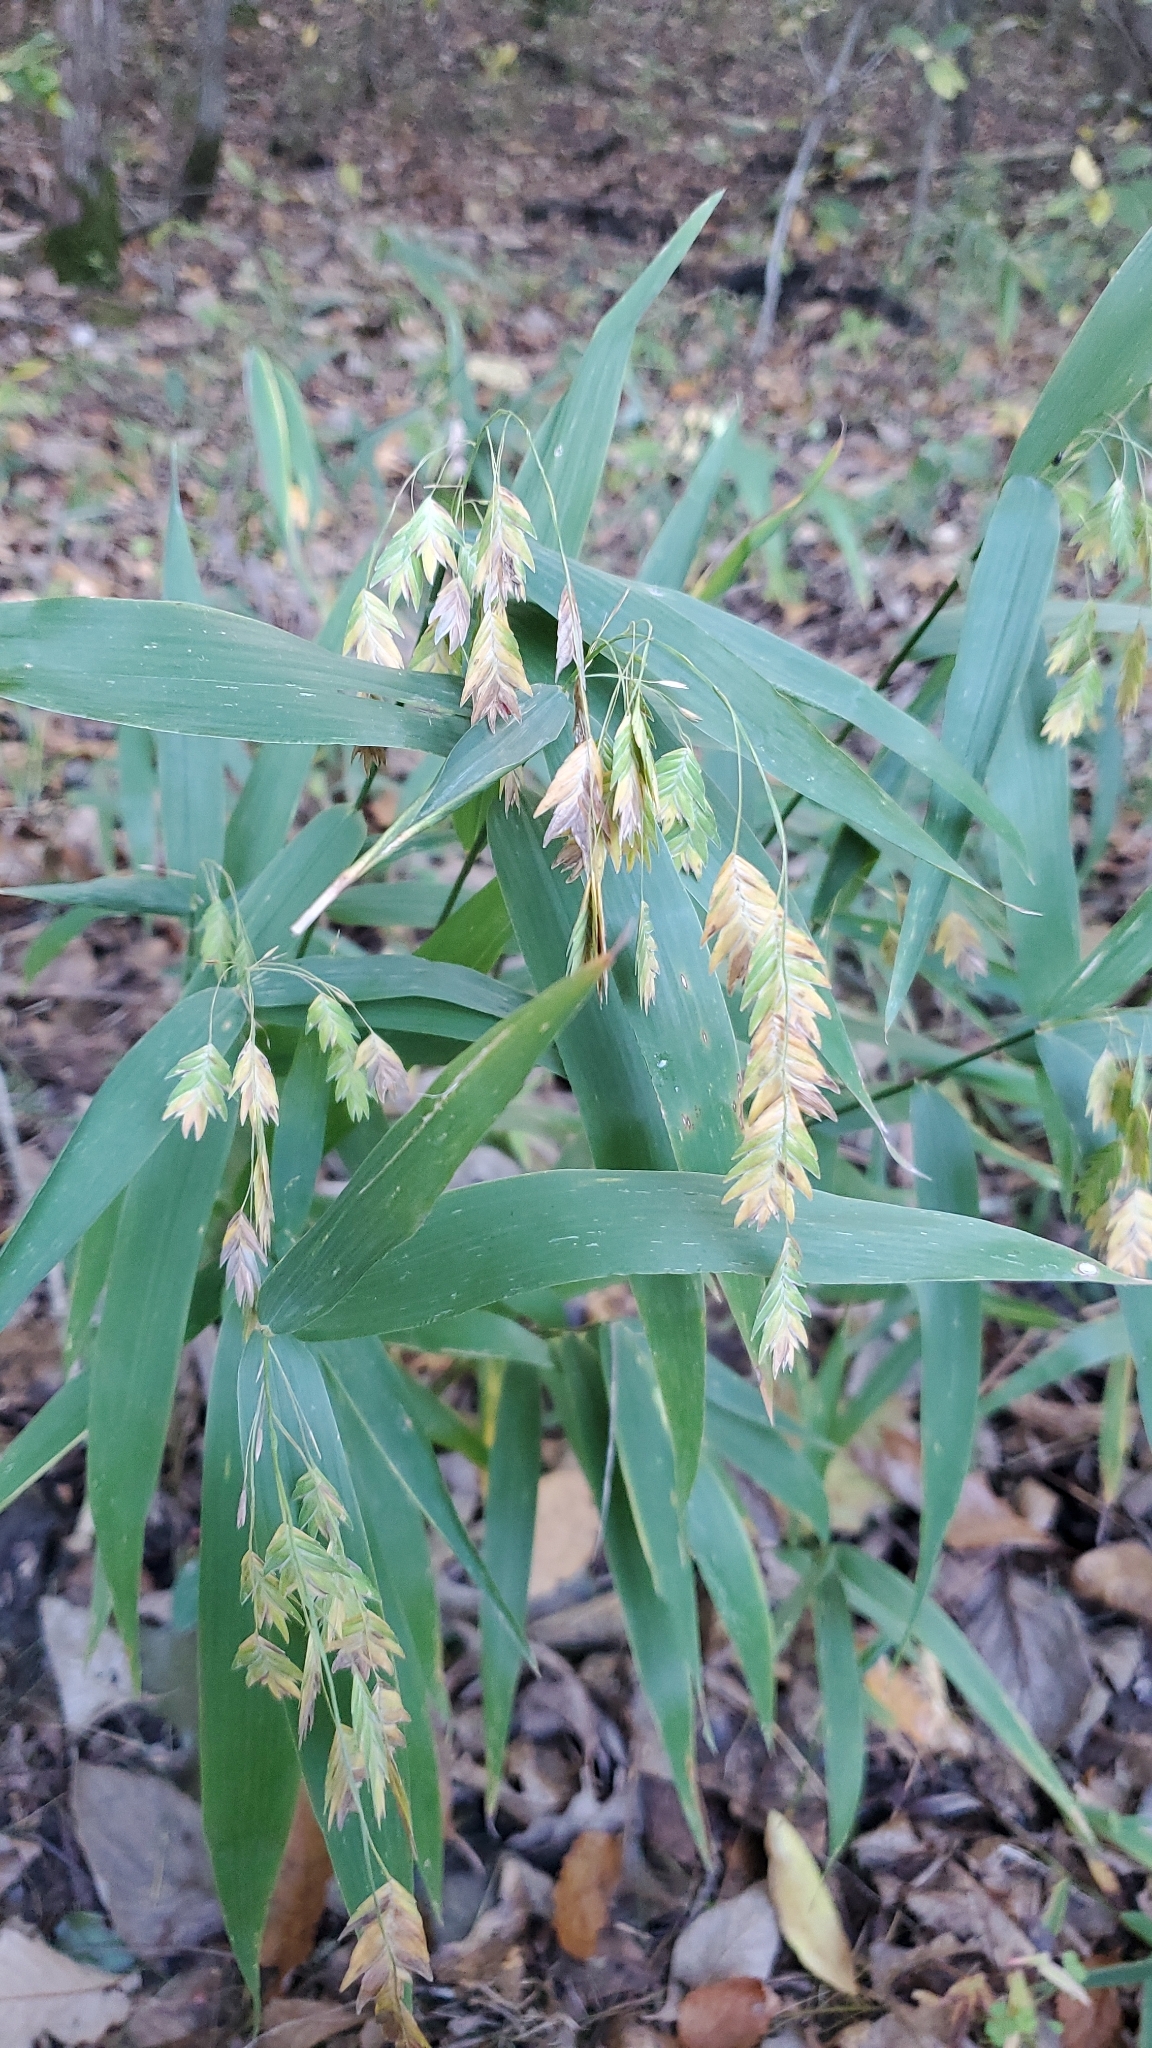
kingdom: Plantae
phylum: Tracheophyta
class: Liliopsida
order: Poales
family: Poaceae
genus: Chasmanthium
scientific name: Chasmanthium latifolium
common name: Broad-leaved chasmanthium
